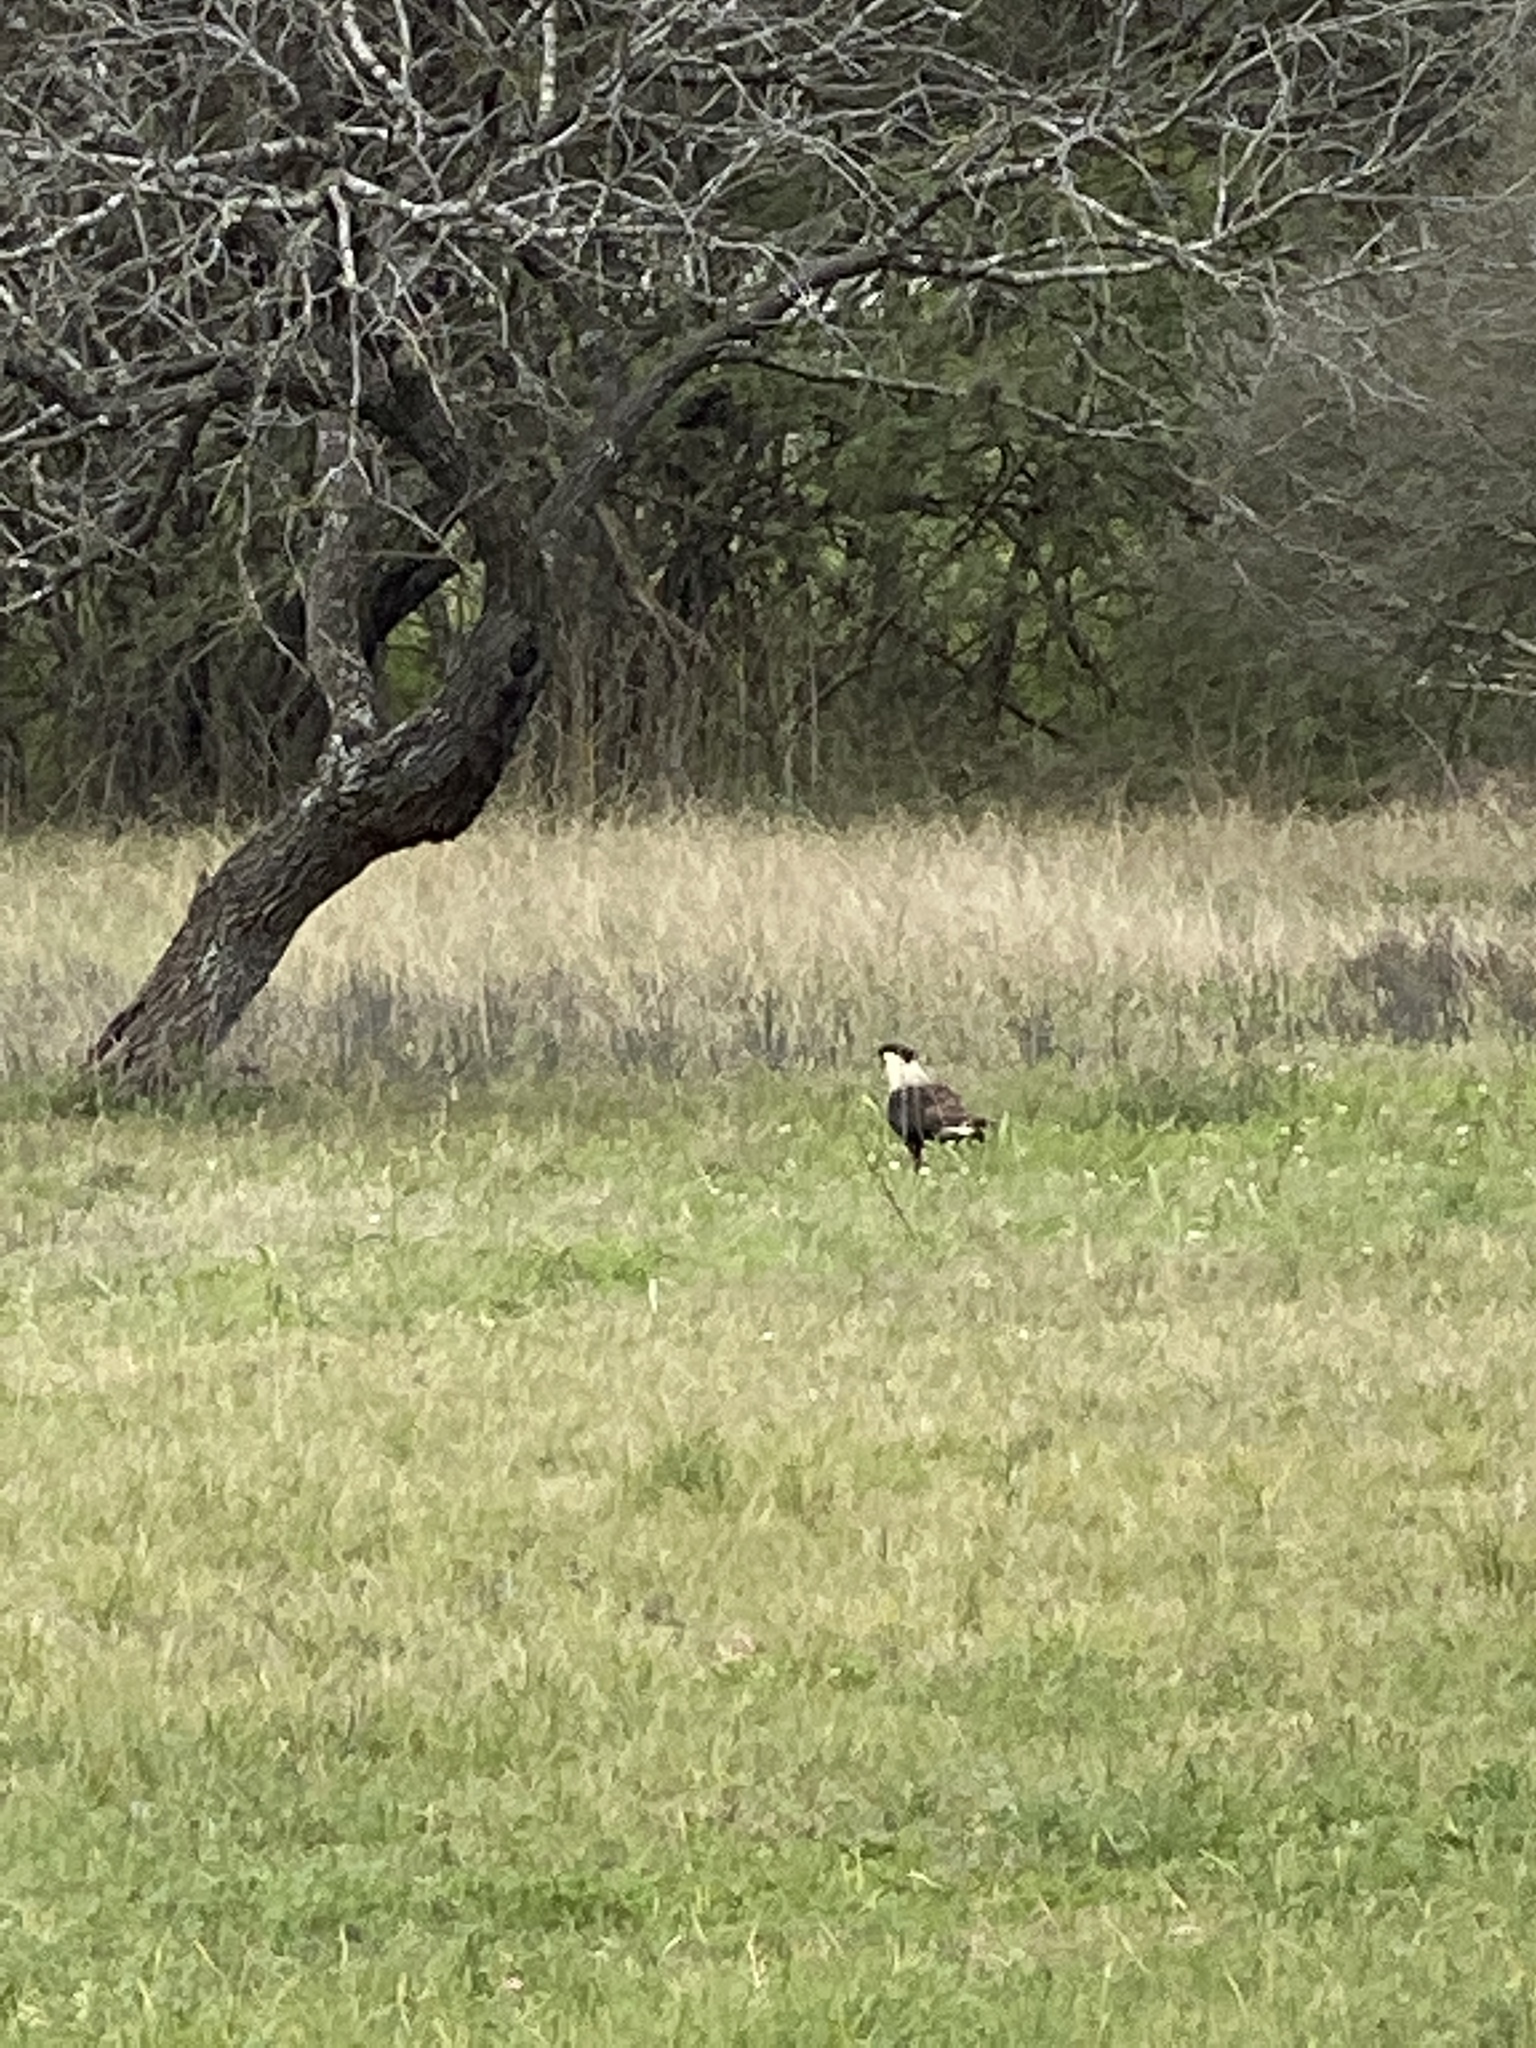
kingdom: Animalia
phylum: Chordata
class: Aves
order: Falconiformes
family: Falconidae
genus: Caracara
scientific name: Caracara plancus
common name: Southern caracara
